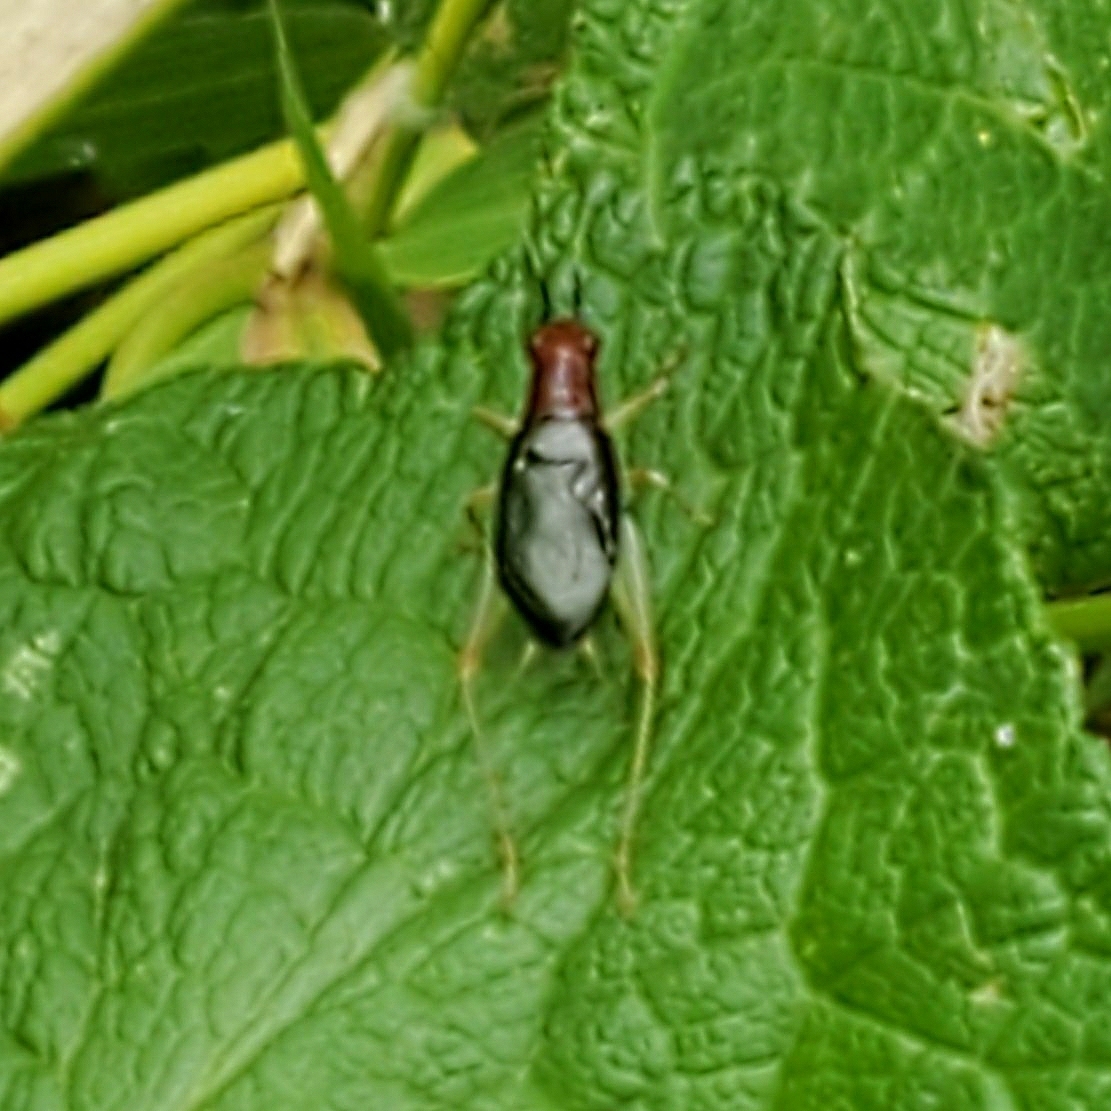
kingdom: Animalia
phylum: Arthropoda
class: Insecta
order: Orthoptera
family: Trigonidiidae
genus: Phyllopalpus
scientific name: Phyllopalpus pulchellus
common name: Handsome trig
